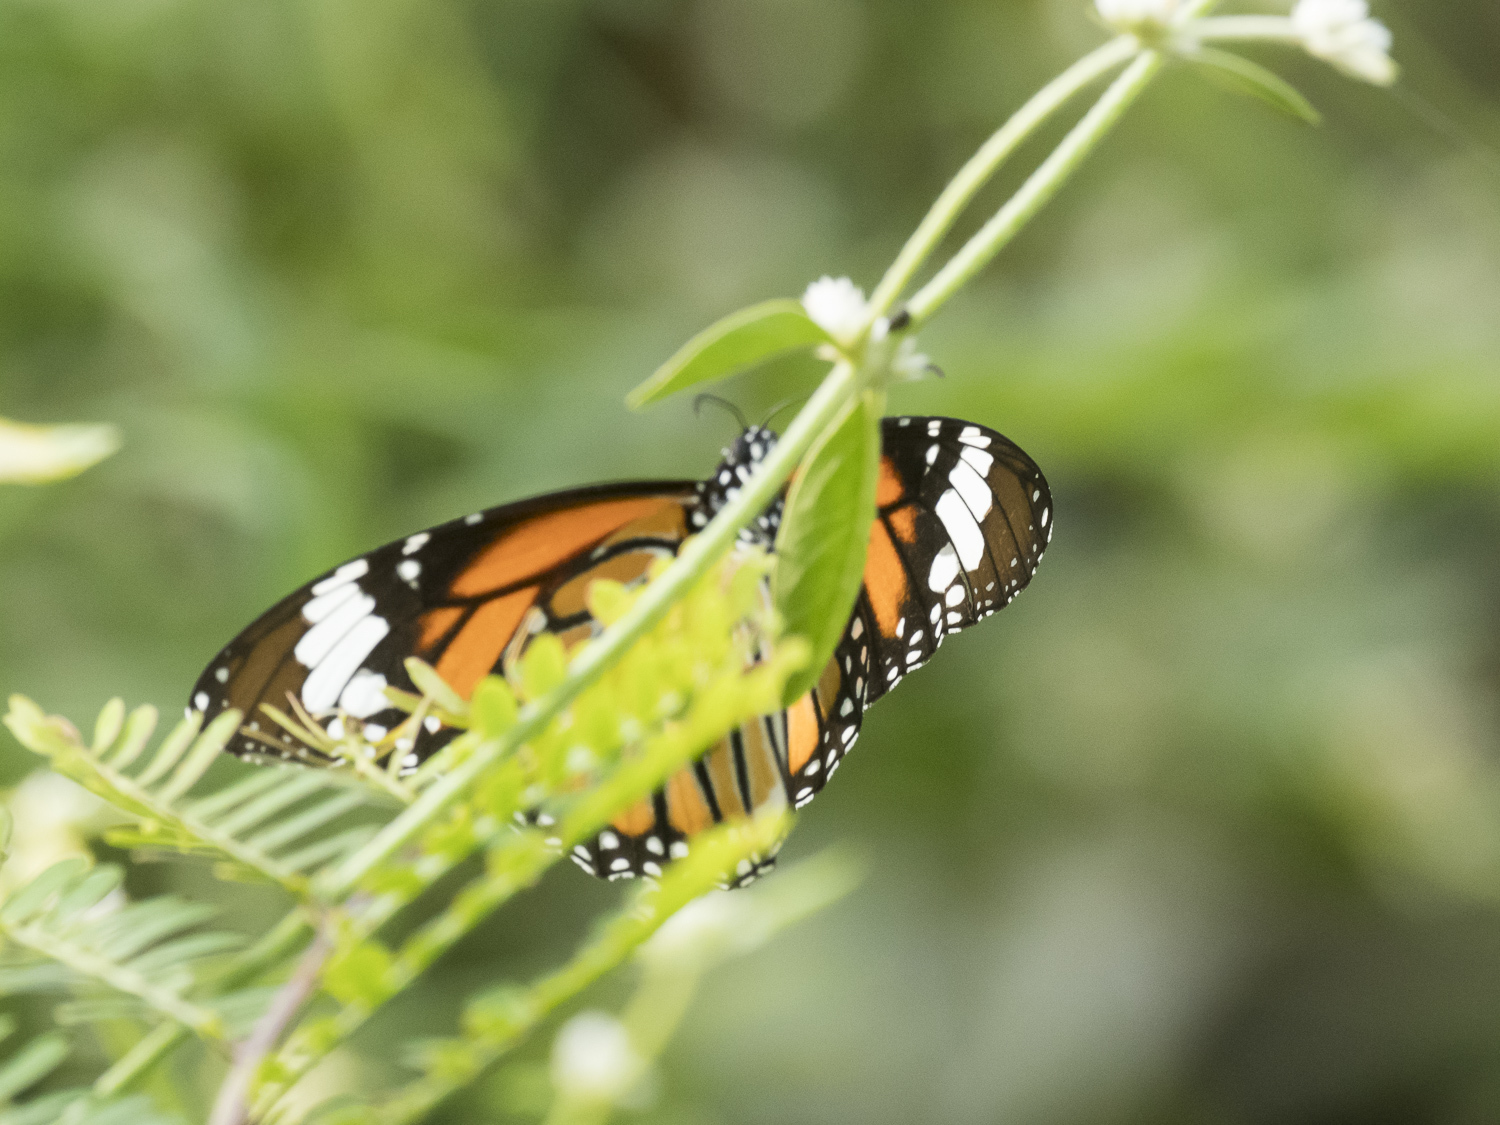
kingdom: Animalia
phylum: Arthropoda
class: Insecta
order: Lepidoptera
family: Nymphalidae
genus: Danaus
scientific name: Danaus genutia
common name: Common tiger butterfly
